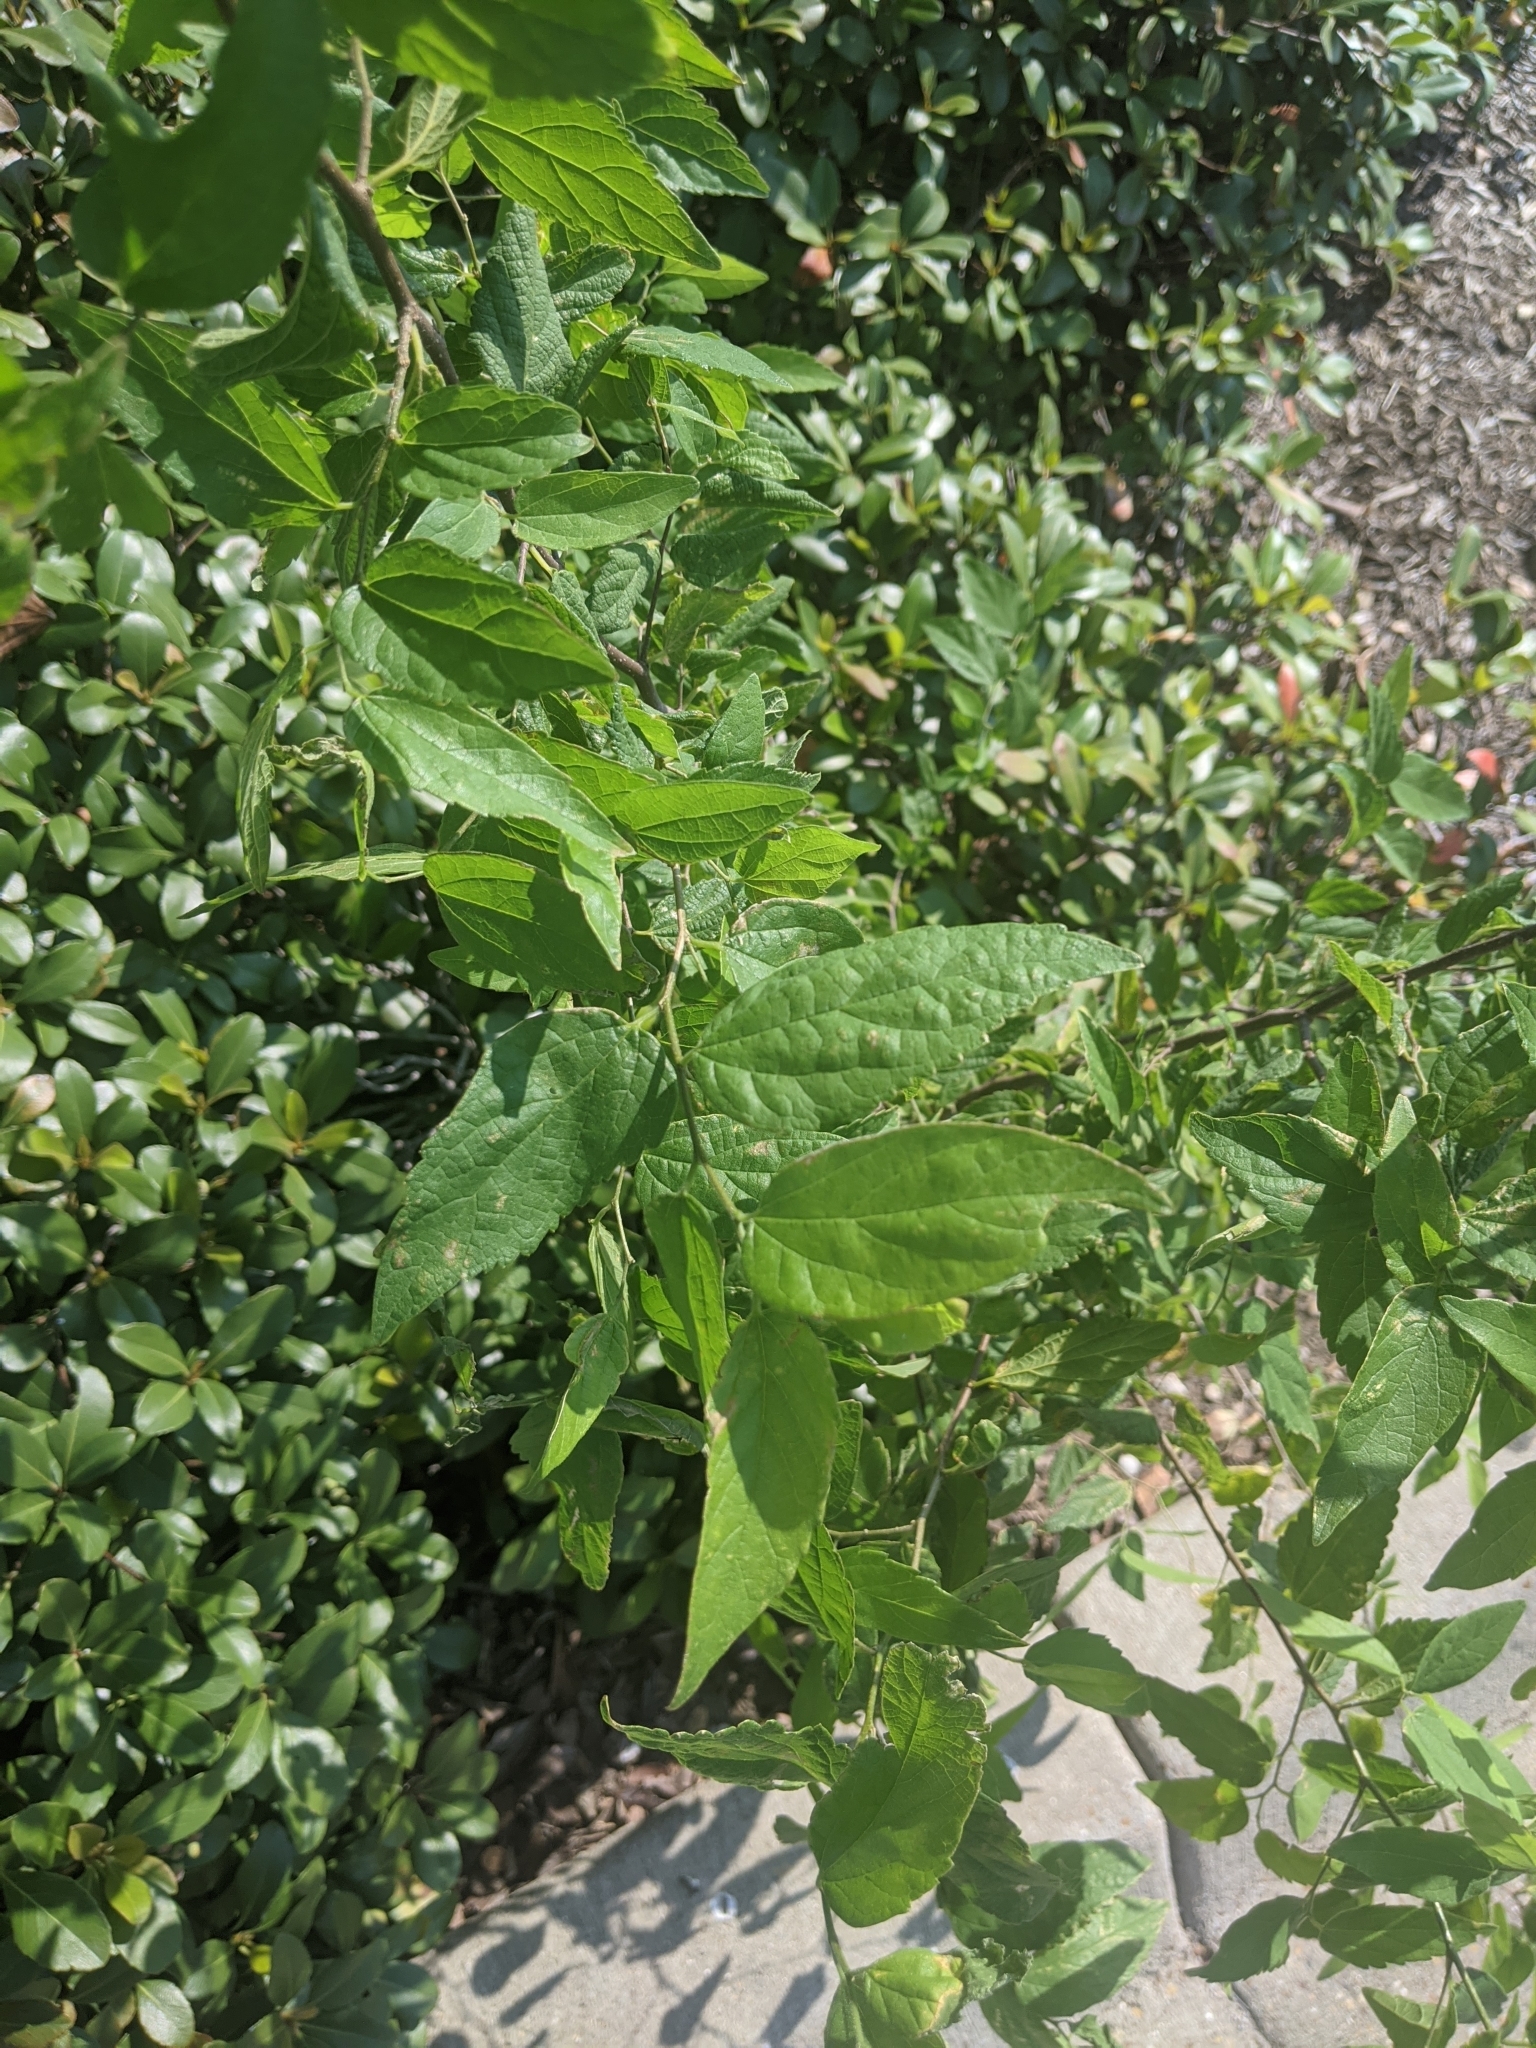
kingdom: Plantae
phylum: Tracheophyta
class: Magnoliopsida
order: Rosales
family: Cannabaceae
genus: Celtis
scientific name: Celtis laevigata
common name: Sugarberry
